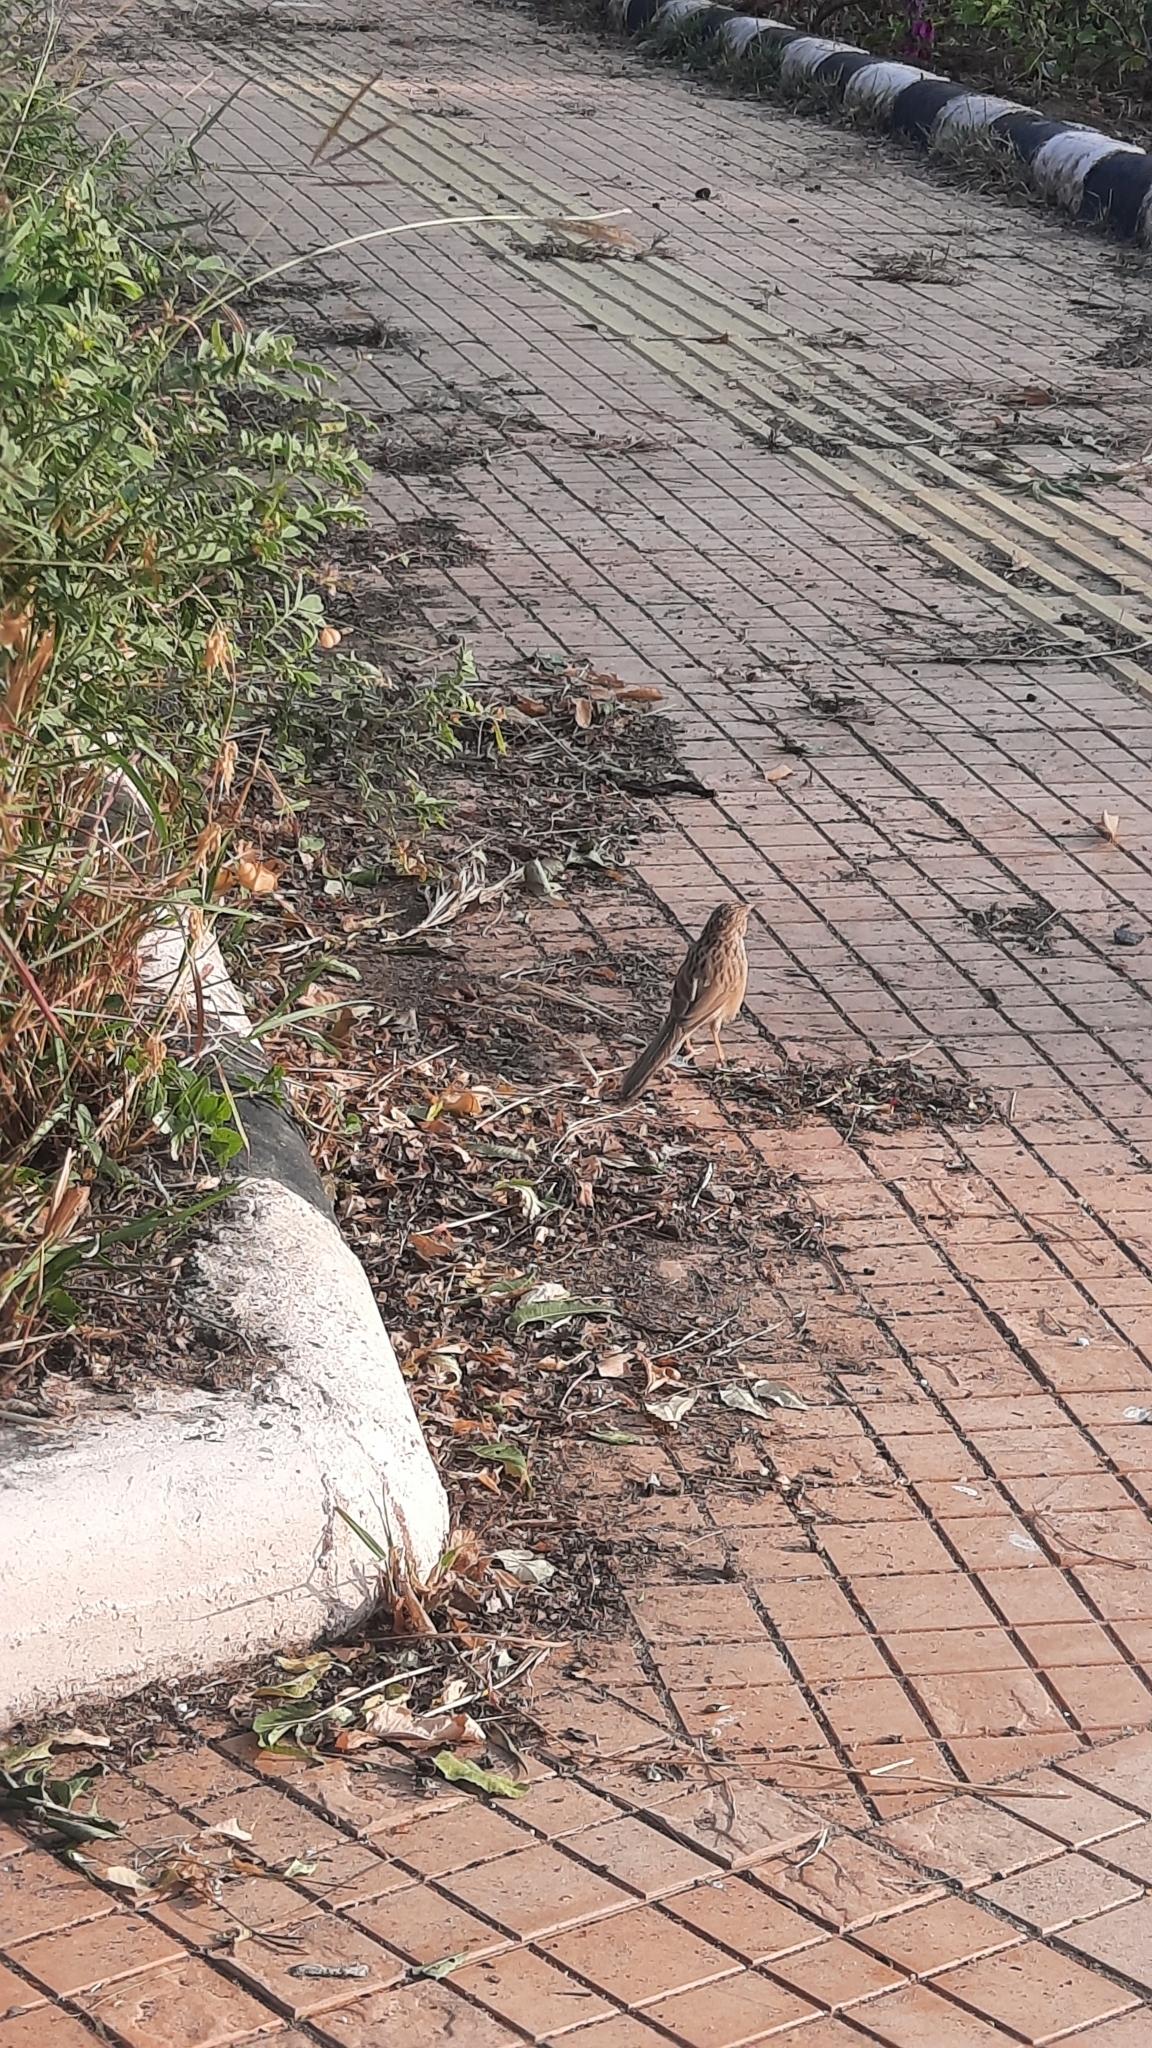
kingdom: Animalia
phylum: Chordata
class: Aves
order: Passeriformes
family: Leiothrichidae
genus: Turdoides
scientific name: Turdoides caudata
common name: Common babbler
